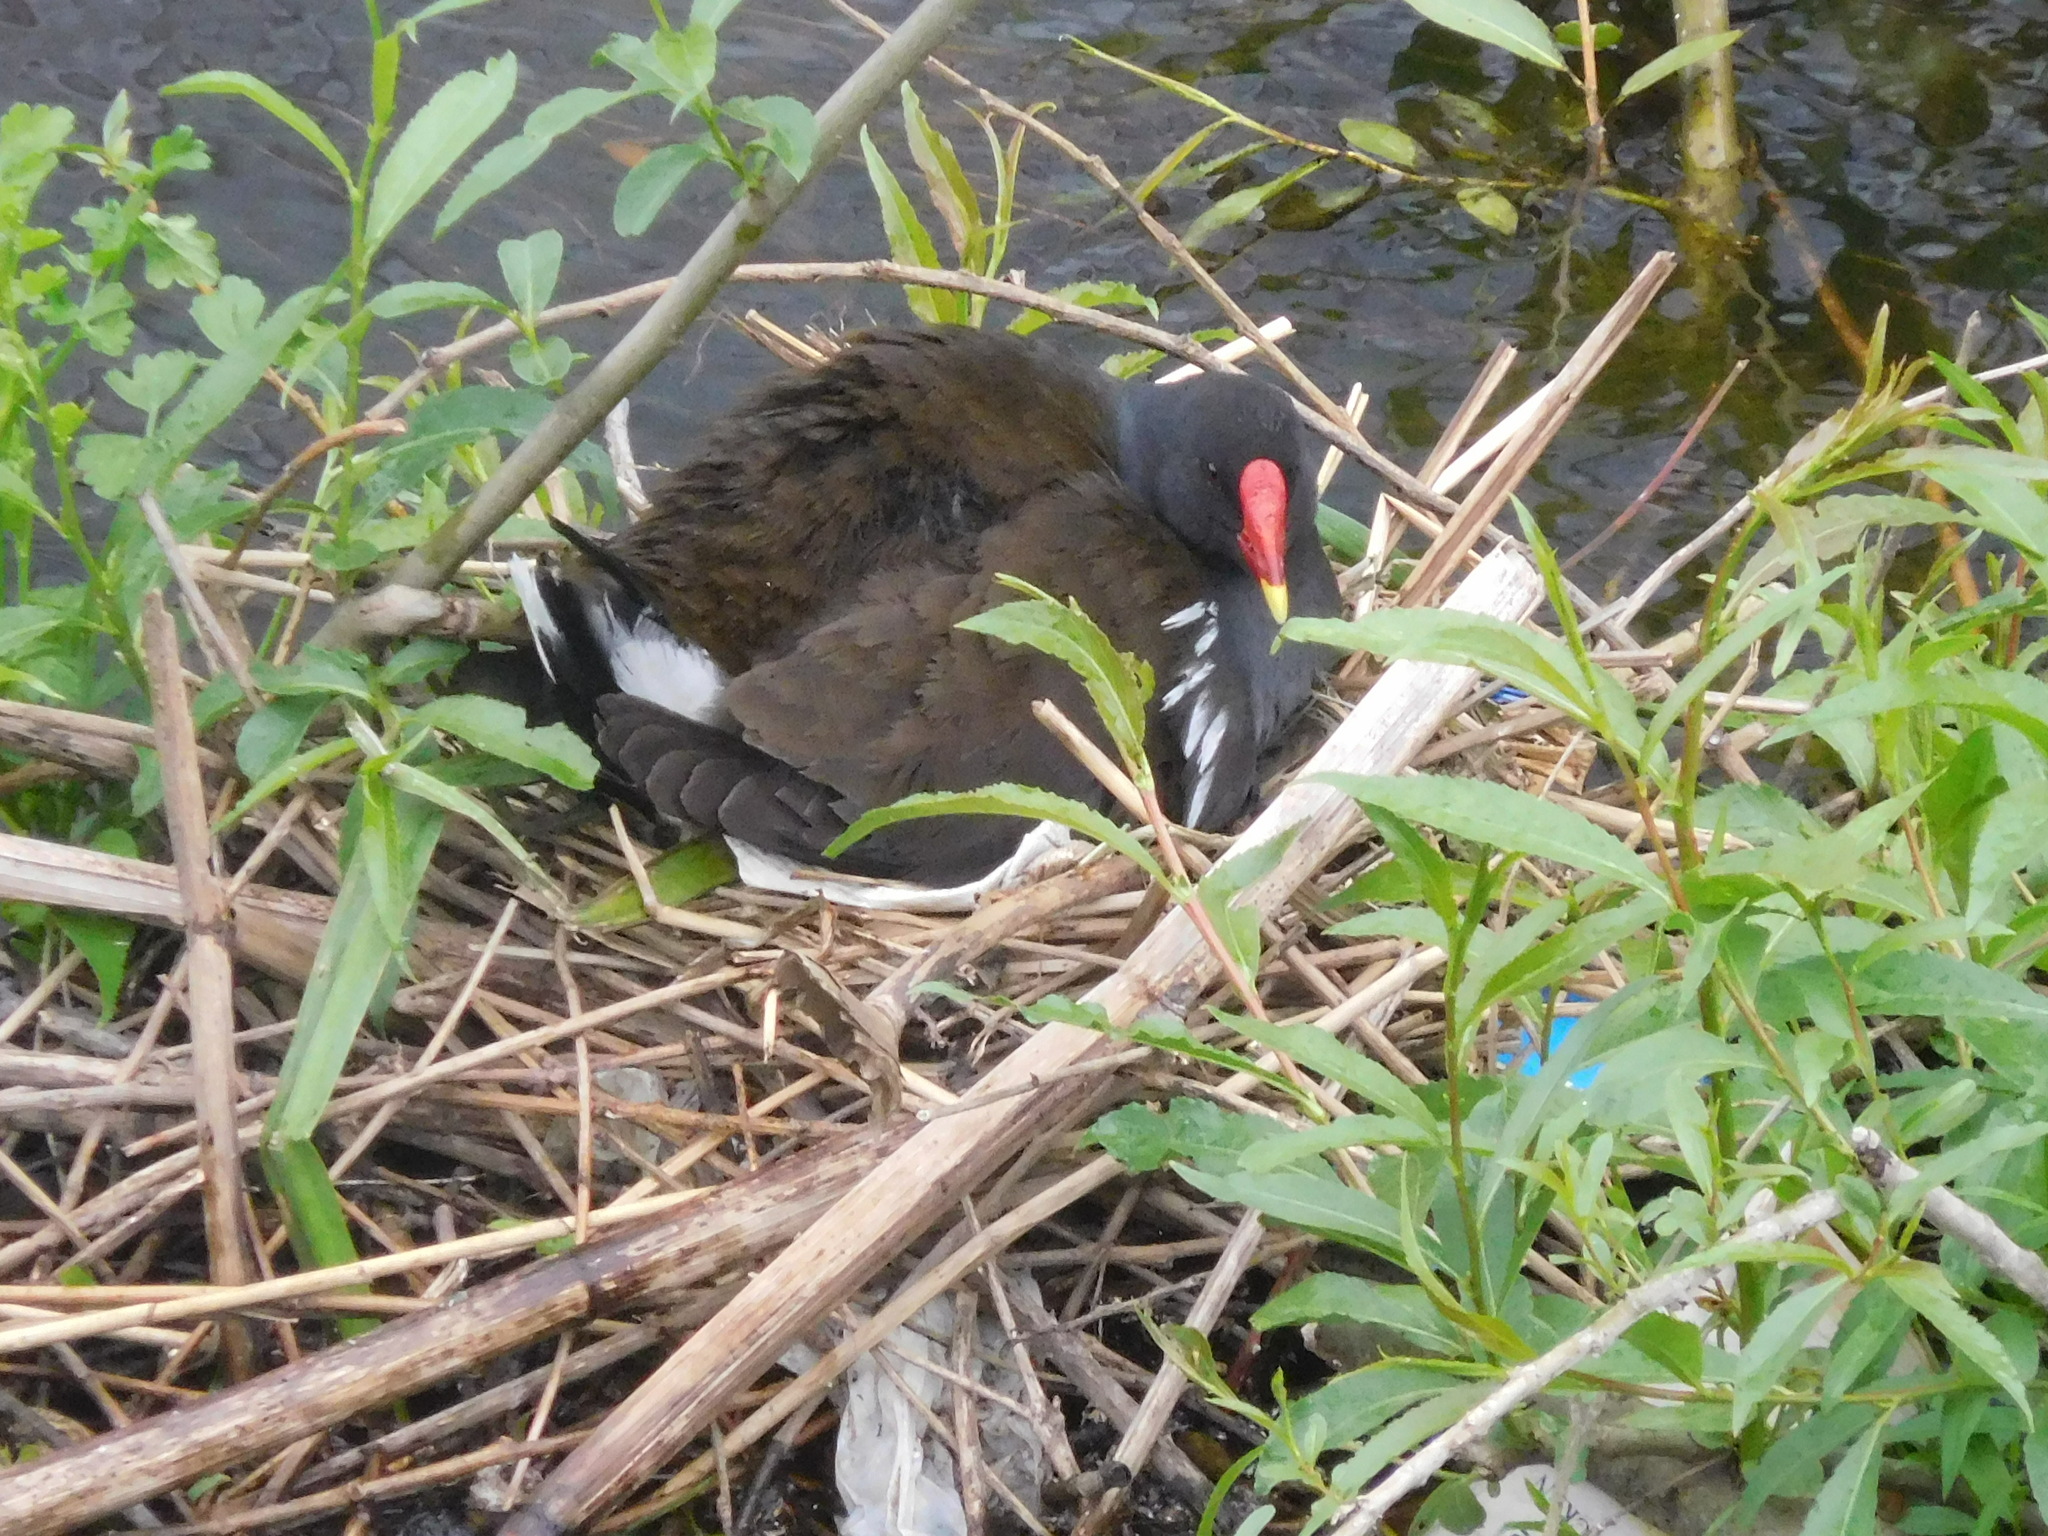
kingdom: Animalia
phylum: Chordata
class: Aves
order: Gruiformes
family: Rallidae
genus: Gallinula
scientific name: Gallinula chloropus
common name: Common moorhen
